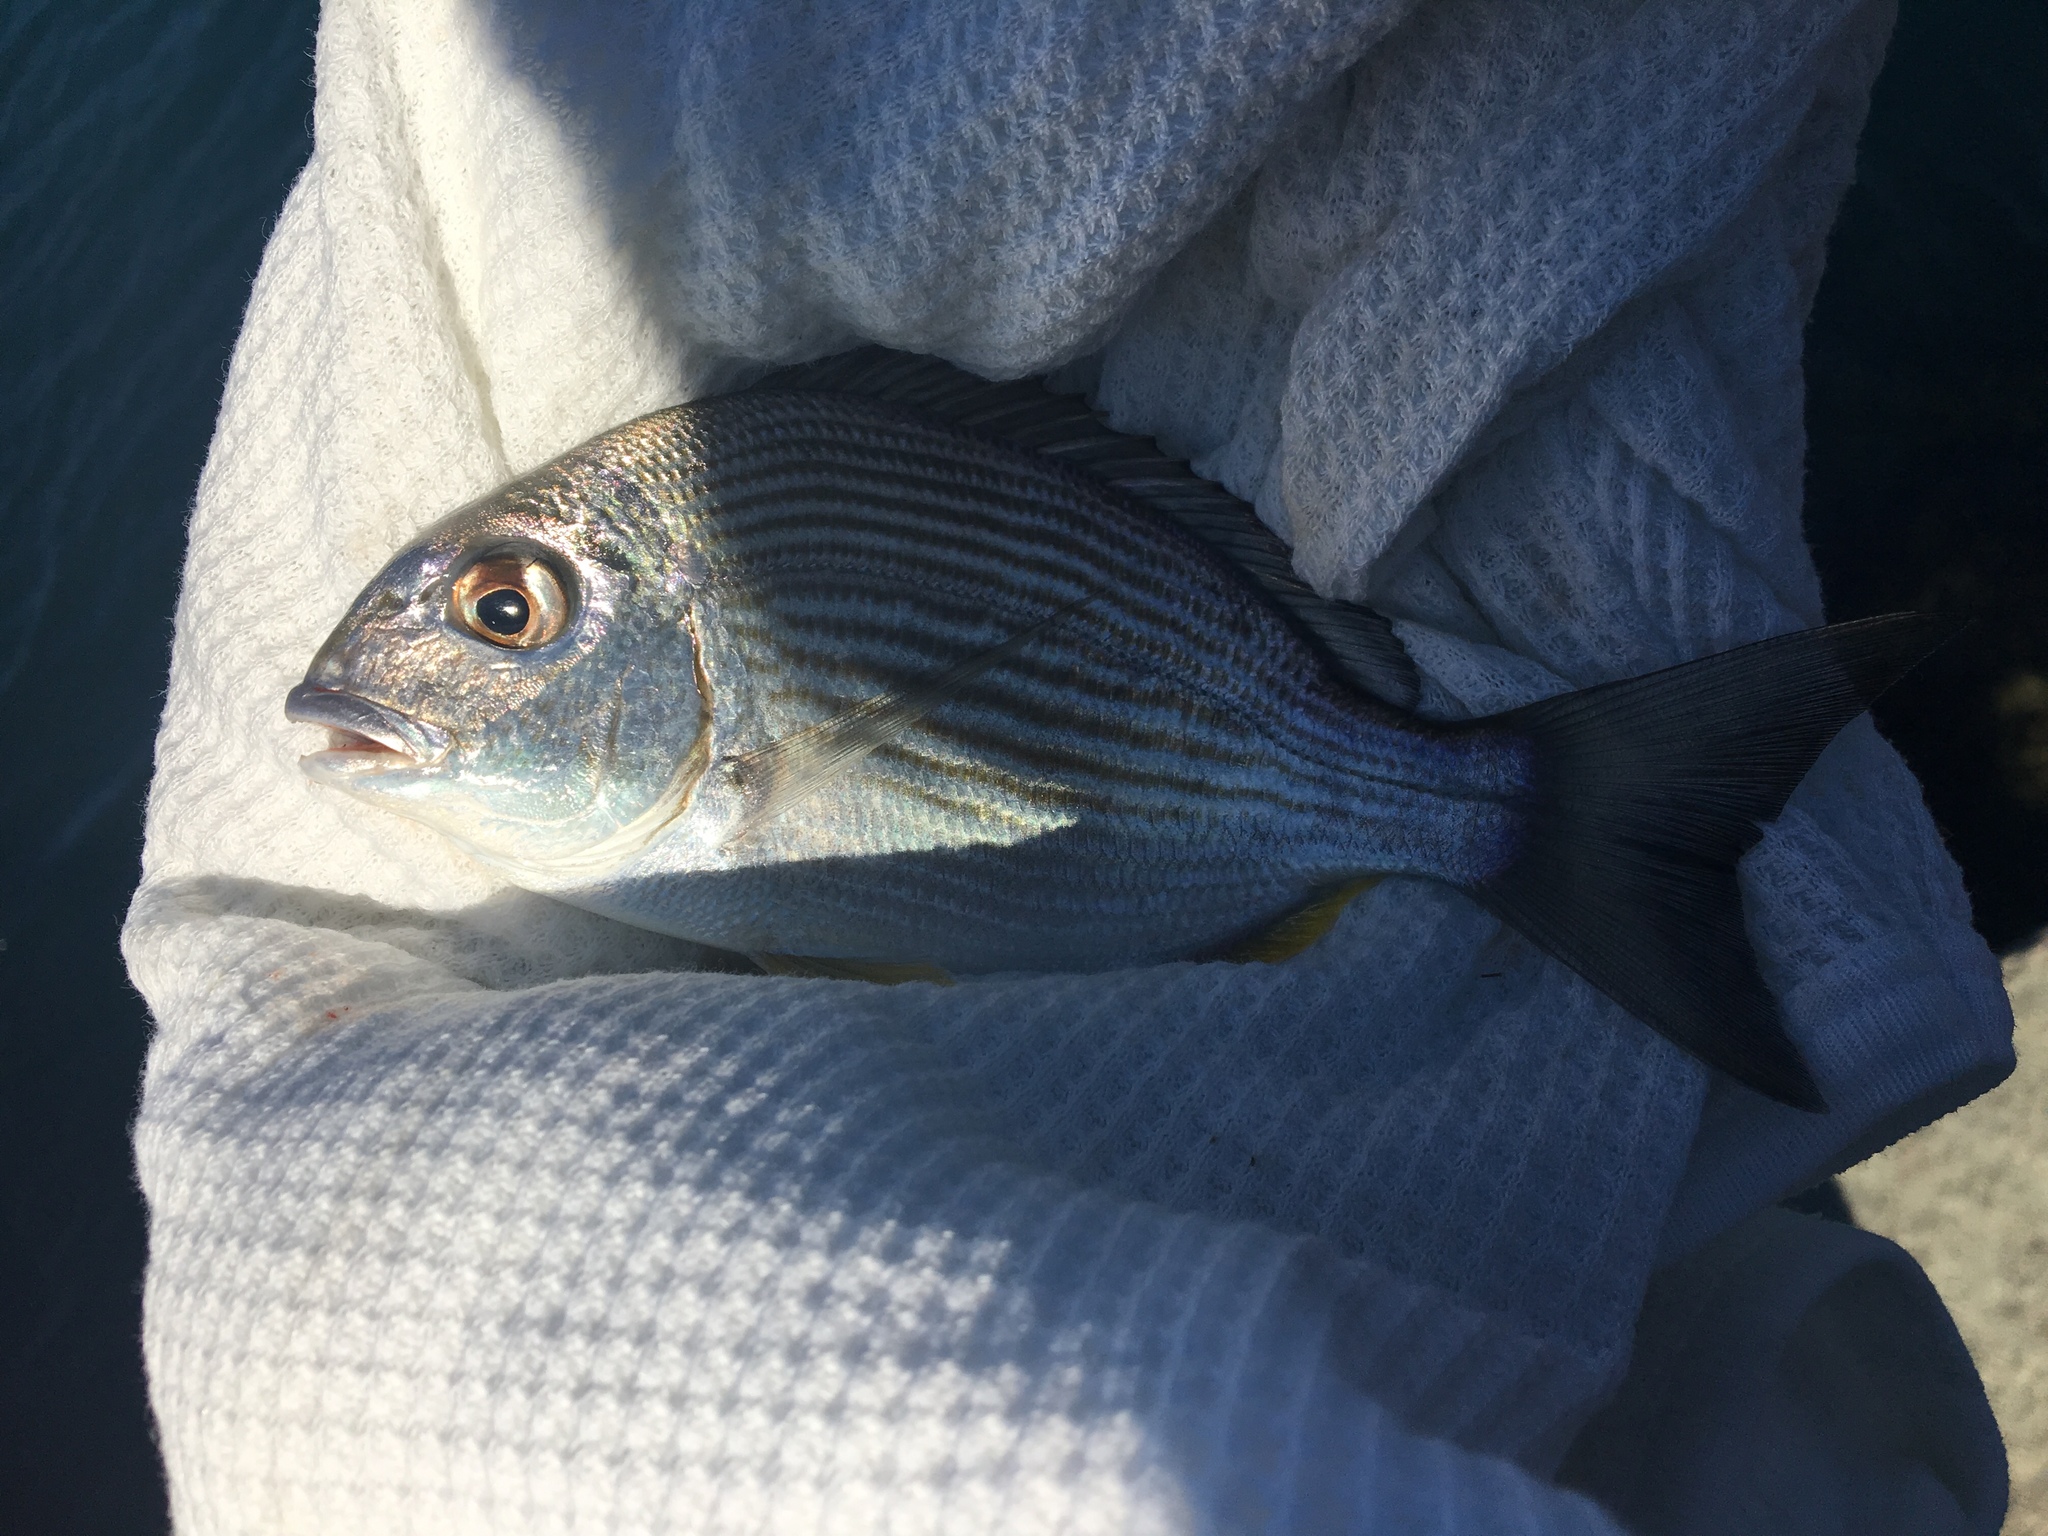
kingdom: Animalia
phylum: Chordata
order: Perciformes
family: Sparidae
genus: Rhabdosargus
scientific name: Rhabdosargus sarba
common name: Goldlined seabream
